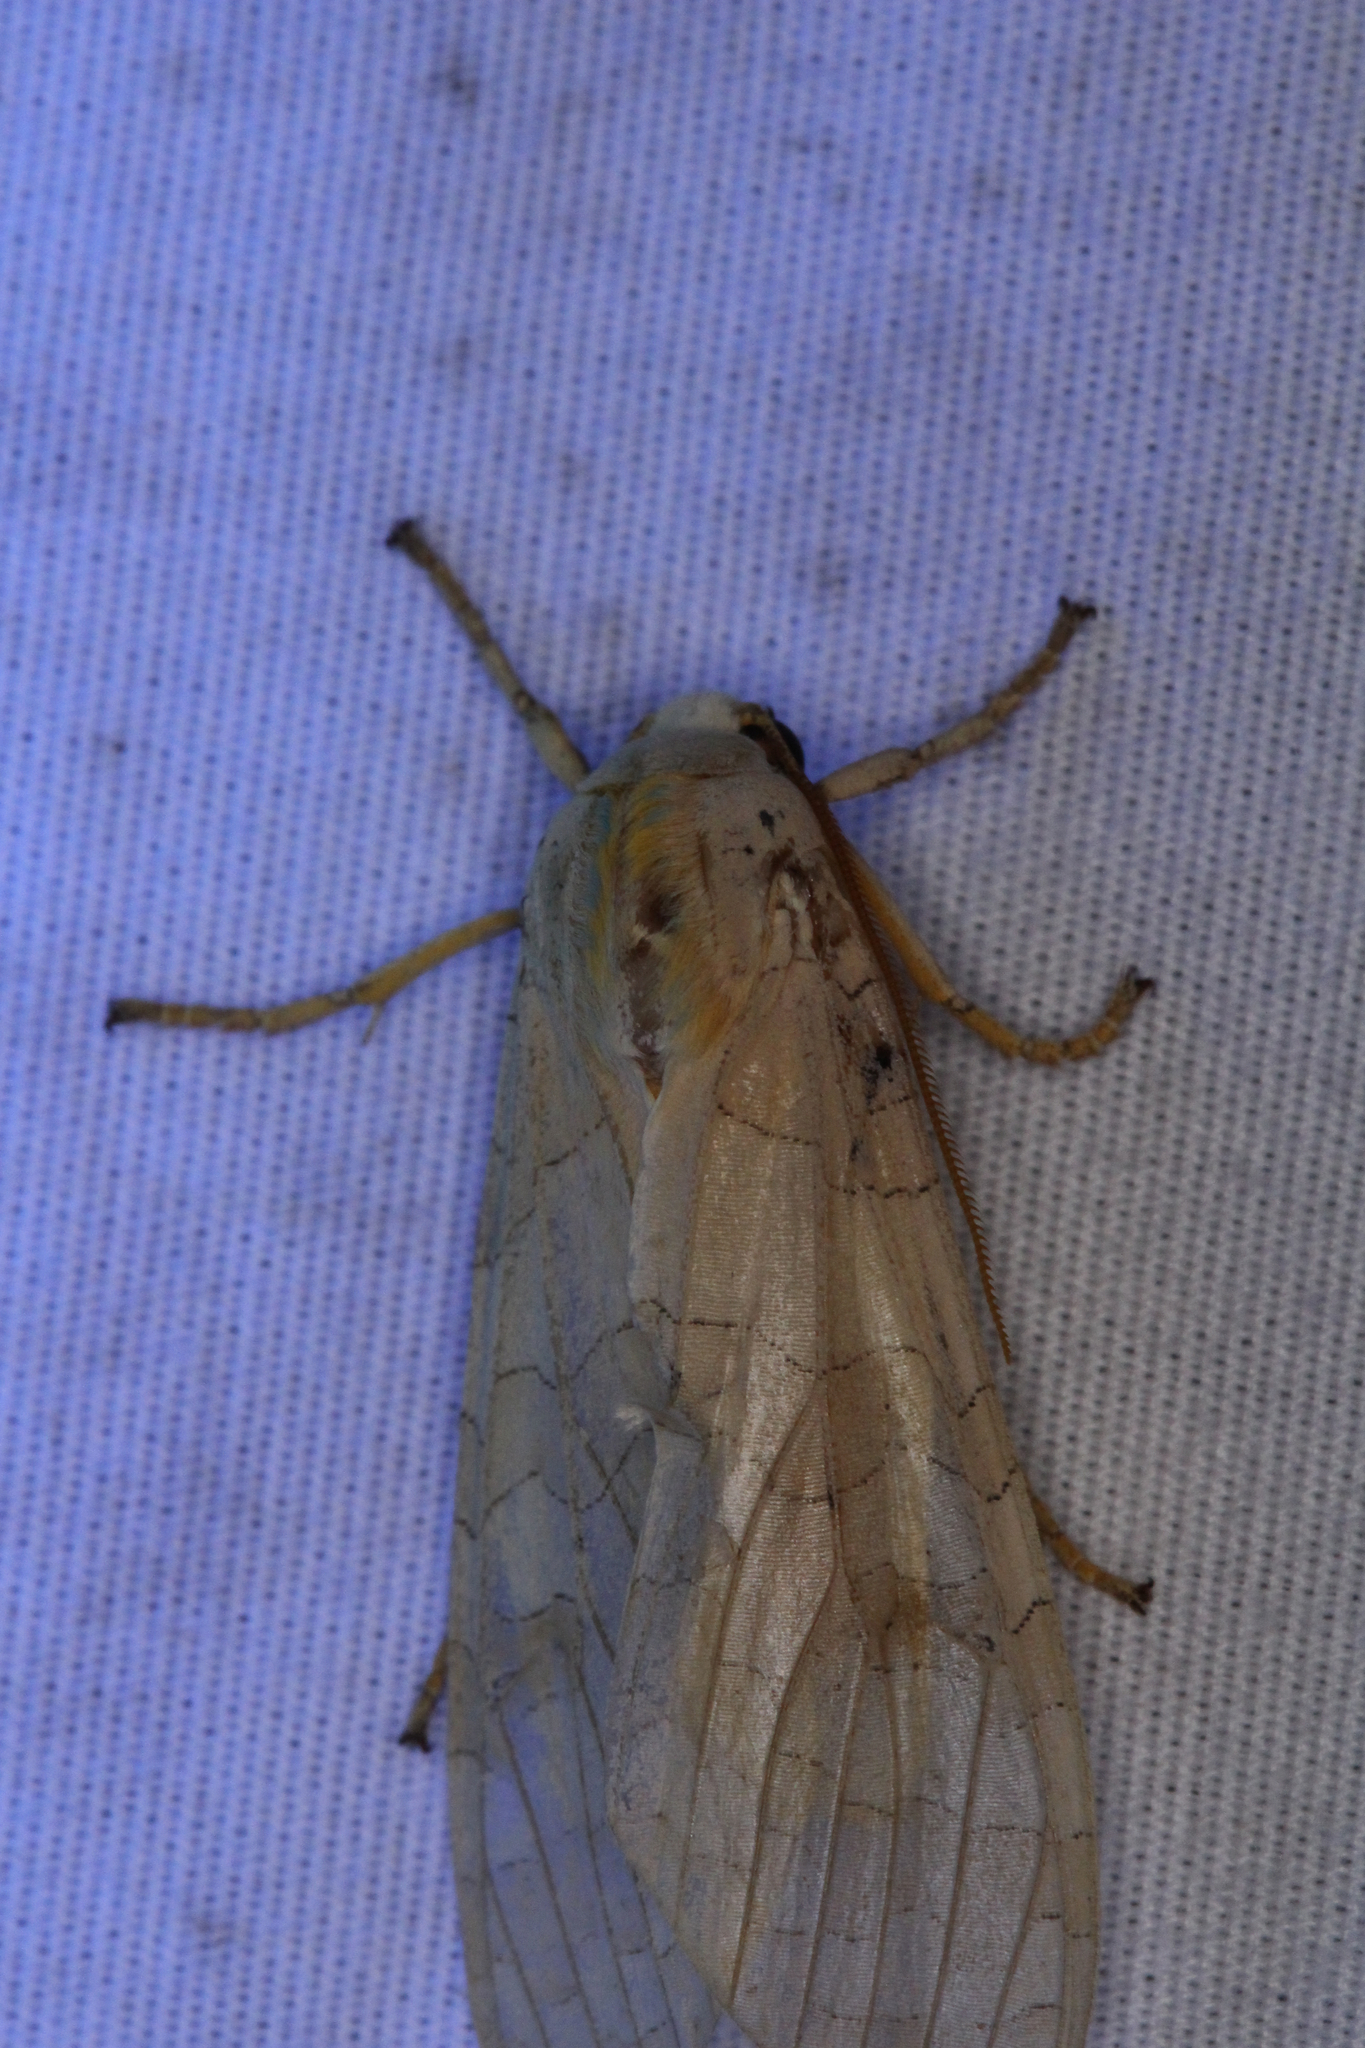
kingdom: Animalia
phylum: Arthropoda
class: Insecta
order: Lepidoptera
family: Erebidae
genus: Halysidota
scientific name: Halysidota
